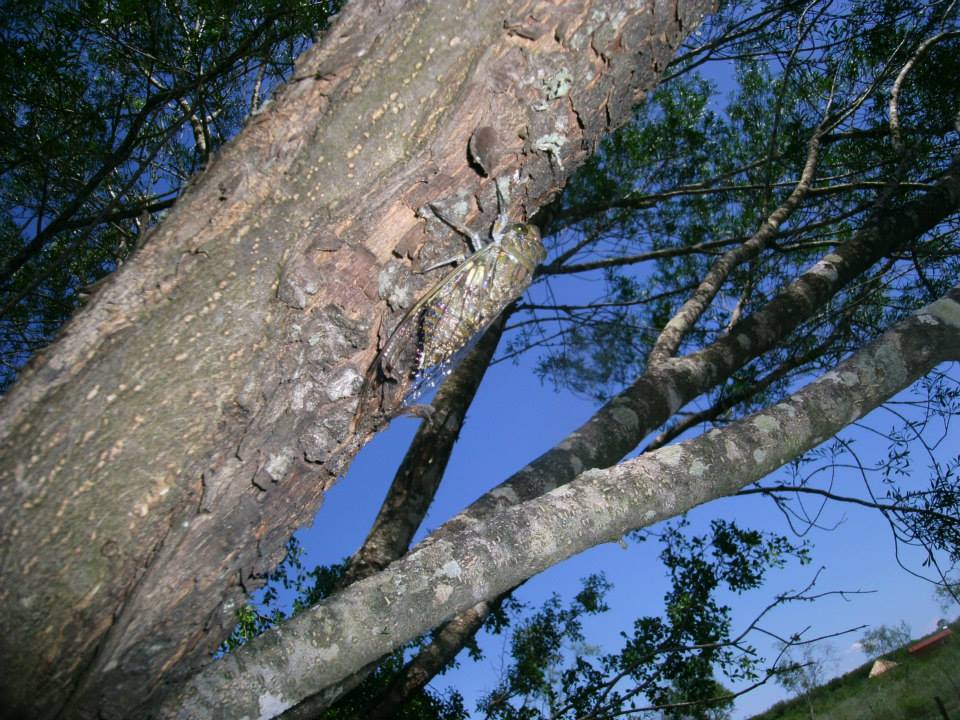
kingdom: Animalia
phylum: Arthropoda
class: Insecta
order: Hemiptera
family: Cicadidae
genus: Quesada
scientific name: Quesada gigas
